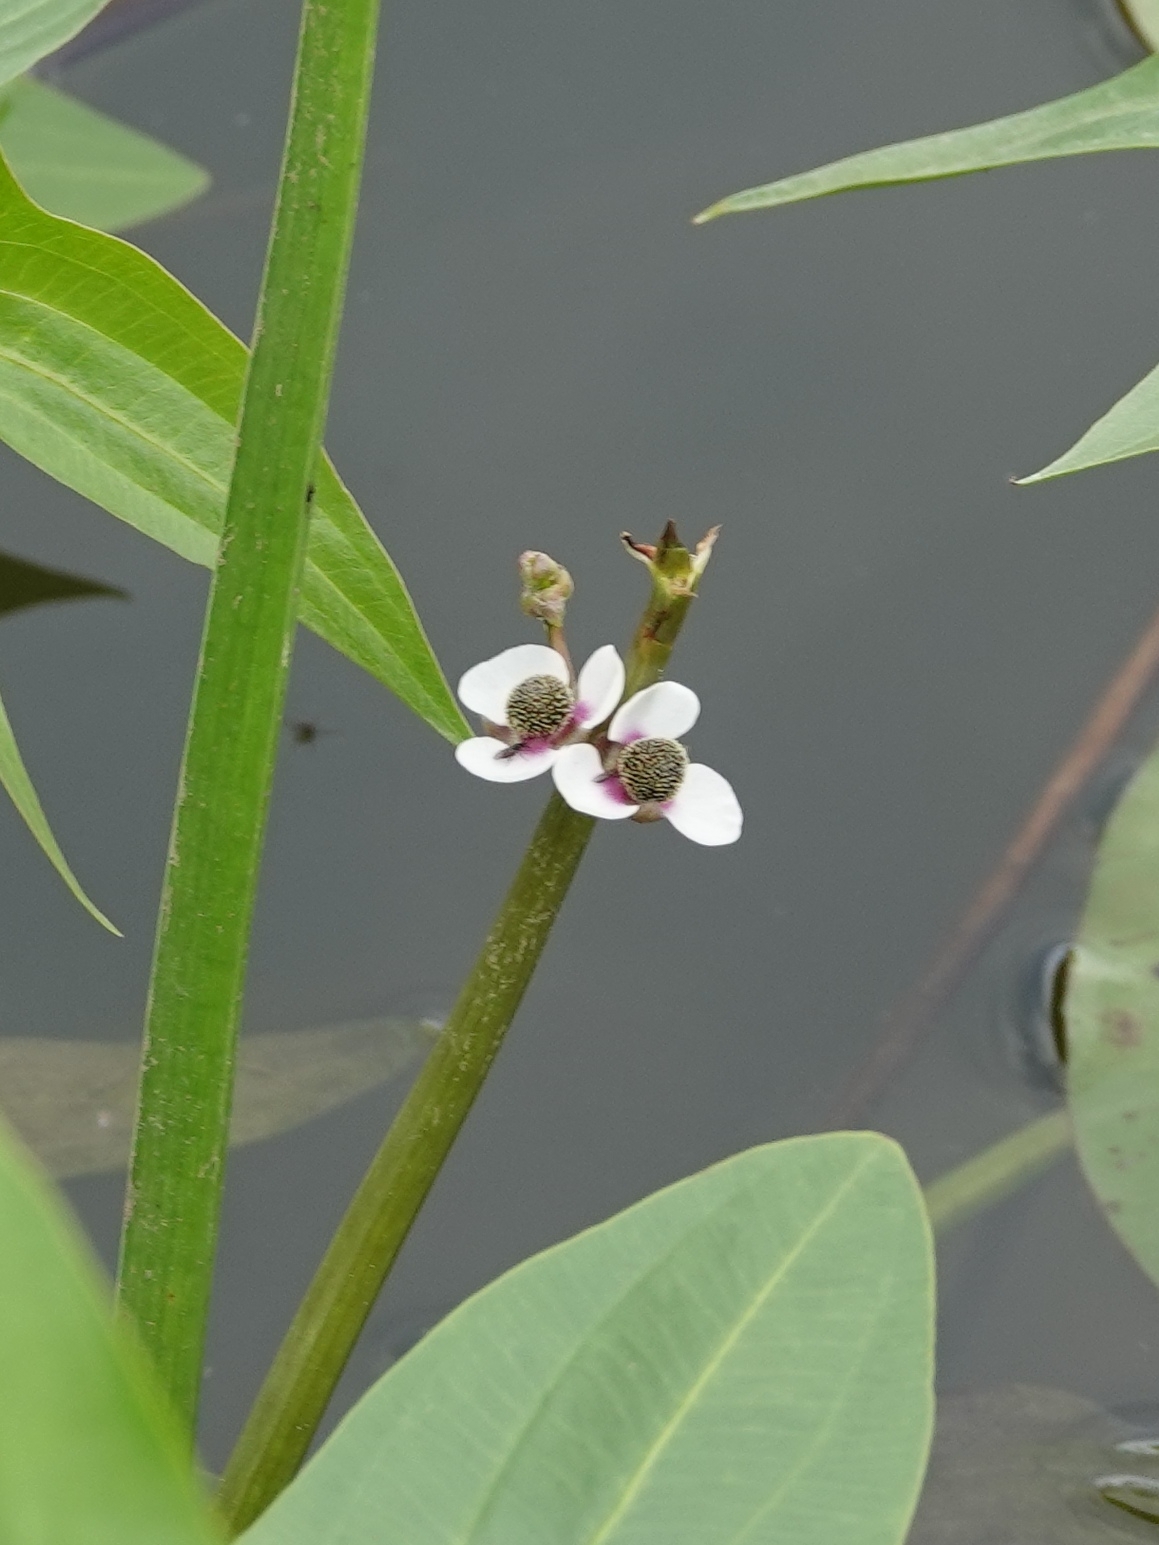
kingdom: Plantae
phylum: Tracheophyta
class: Liliopsida
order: Alismatales
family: Alismataceae
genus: Sagittaria
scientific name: Sagittaria sagittifolia
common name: Arrowhead
